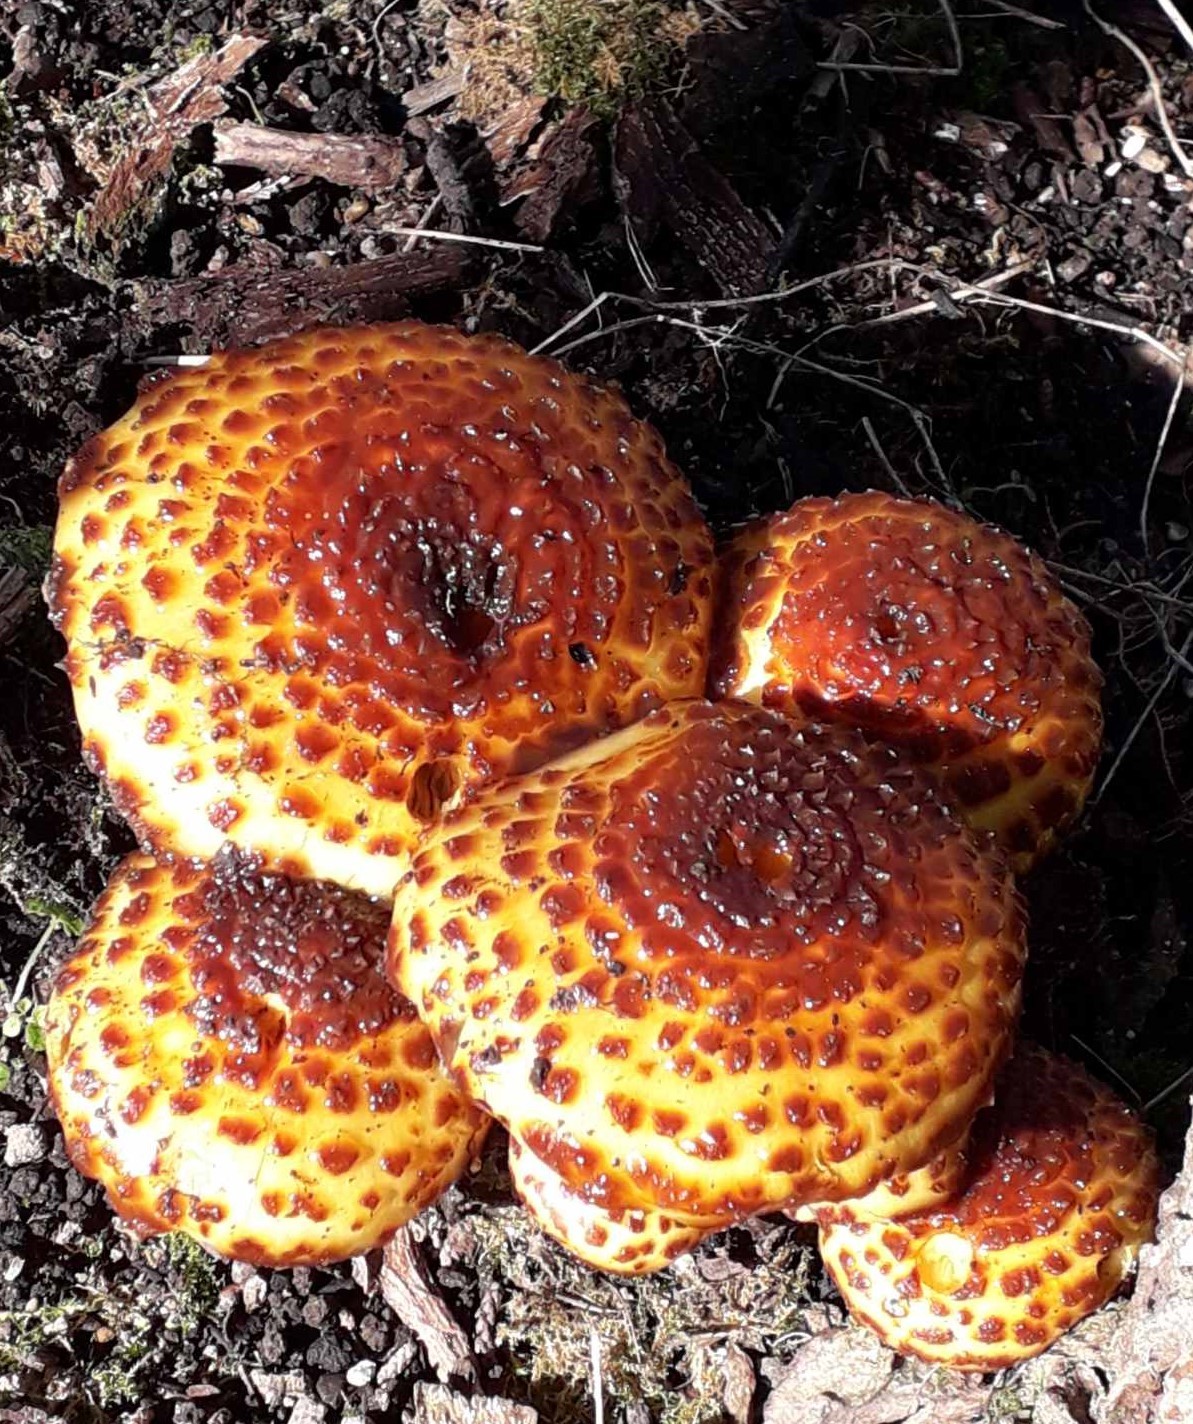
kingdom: Fungi
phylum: Basidiomycota
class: Agaricomycetes
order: Agaricales
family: Strophariaceae
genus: Pholiota
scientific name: Pholiota glutinosa
